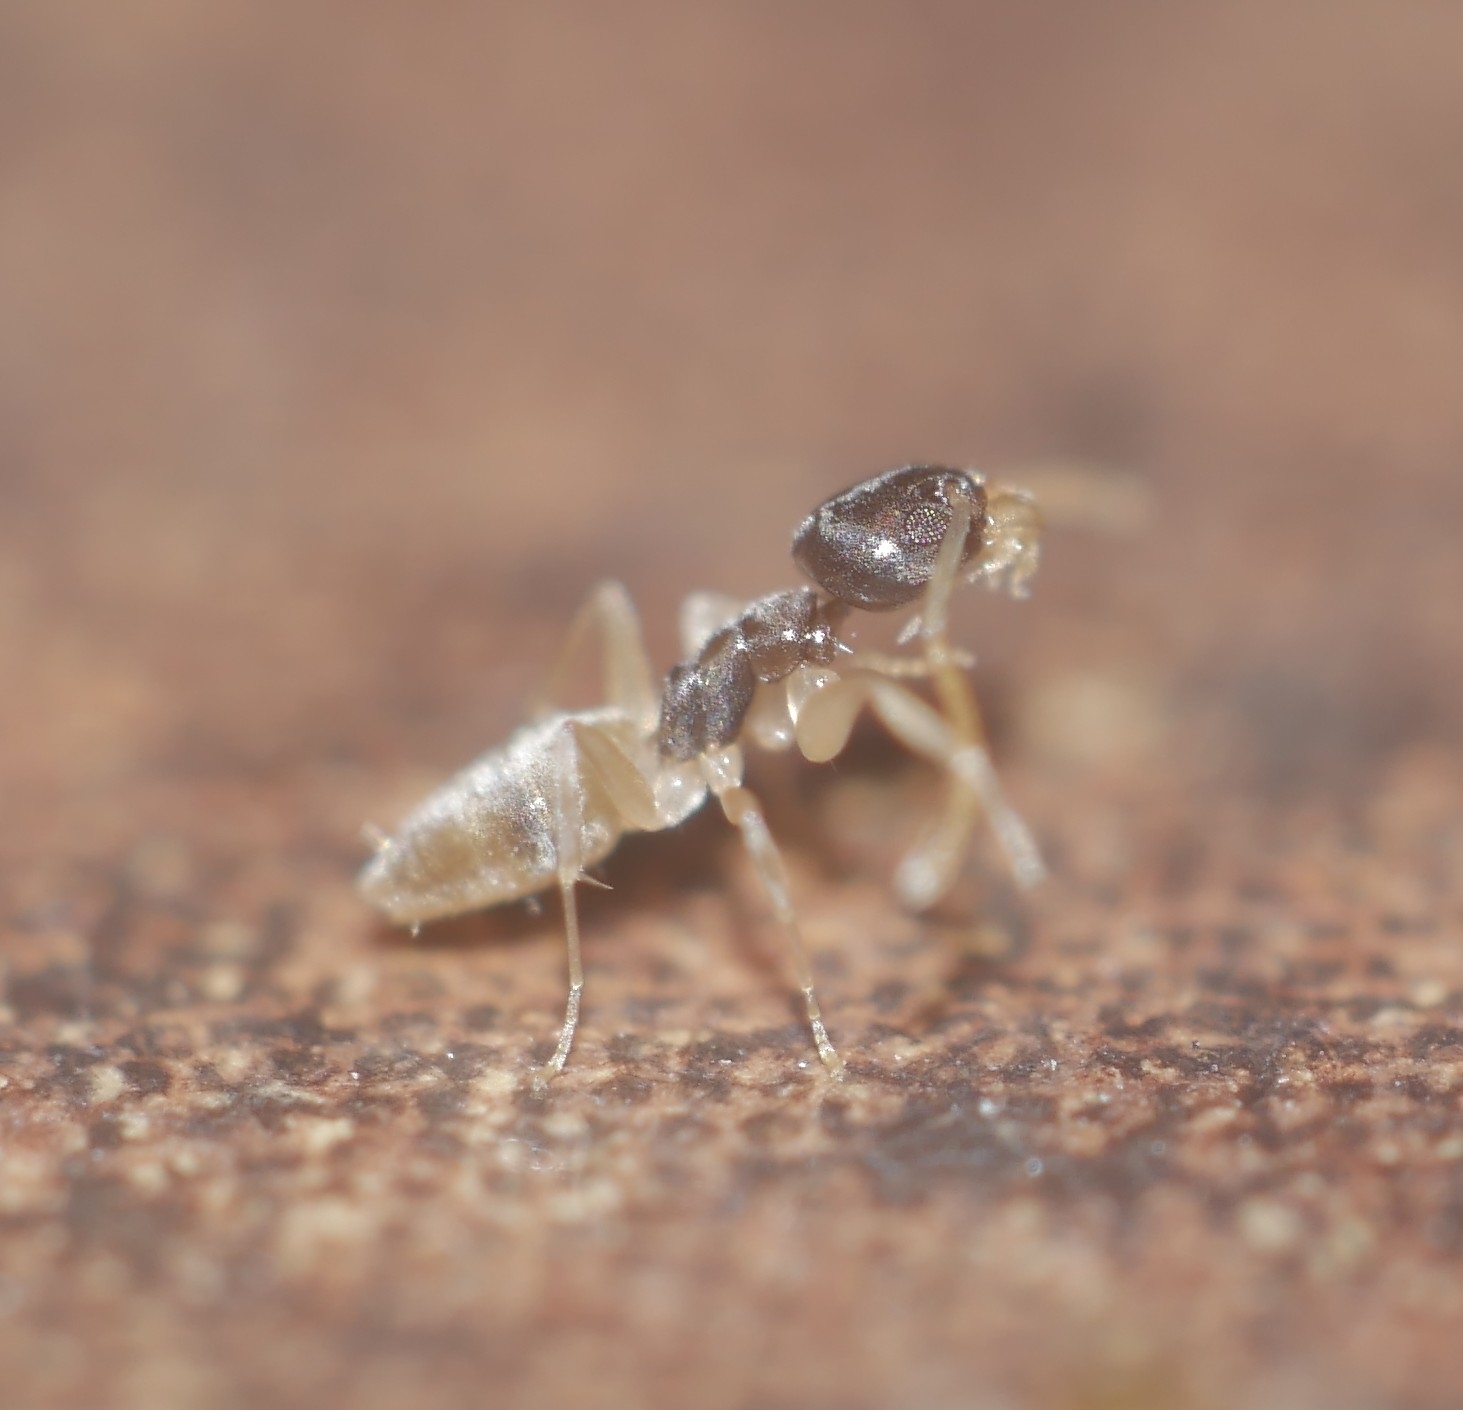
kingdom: Animalia
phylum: Arthropoda
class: Insecta
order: Hymenoptera
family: Formicidae
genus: Tapinoma
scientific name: Tapinoma melanocephalum
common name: Ghost ant
